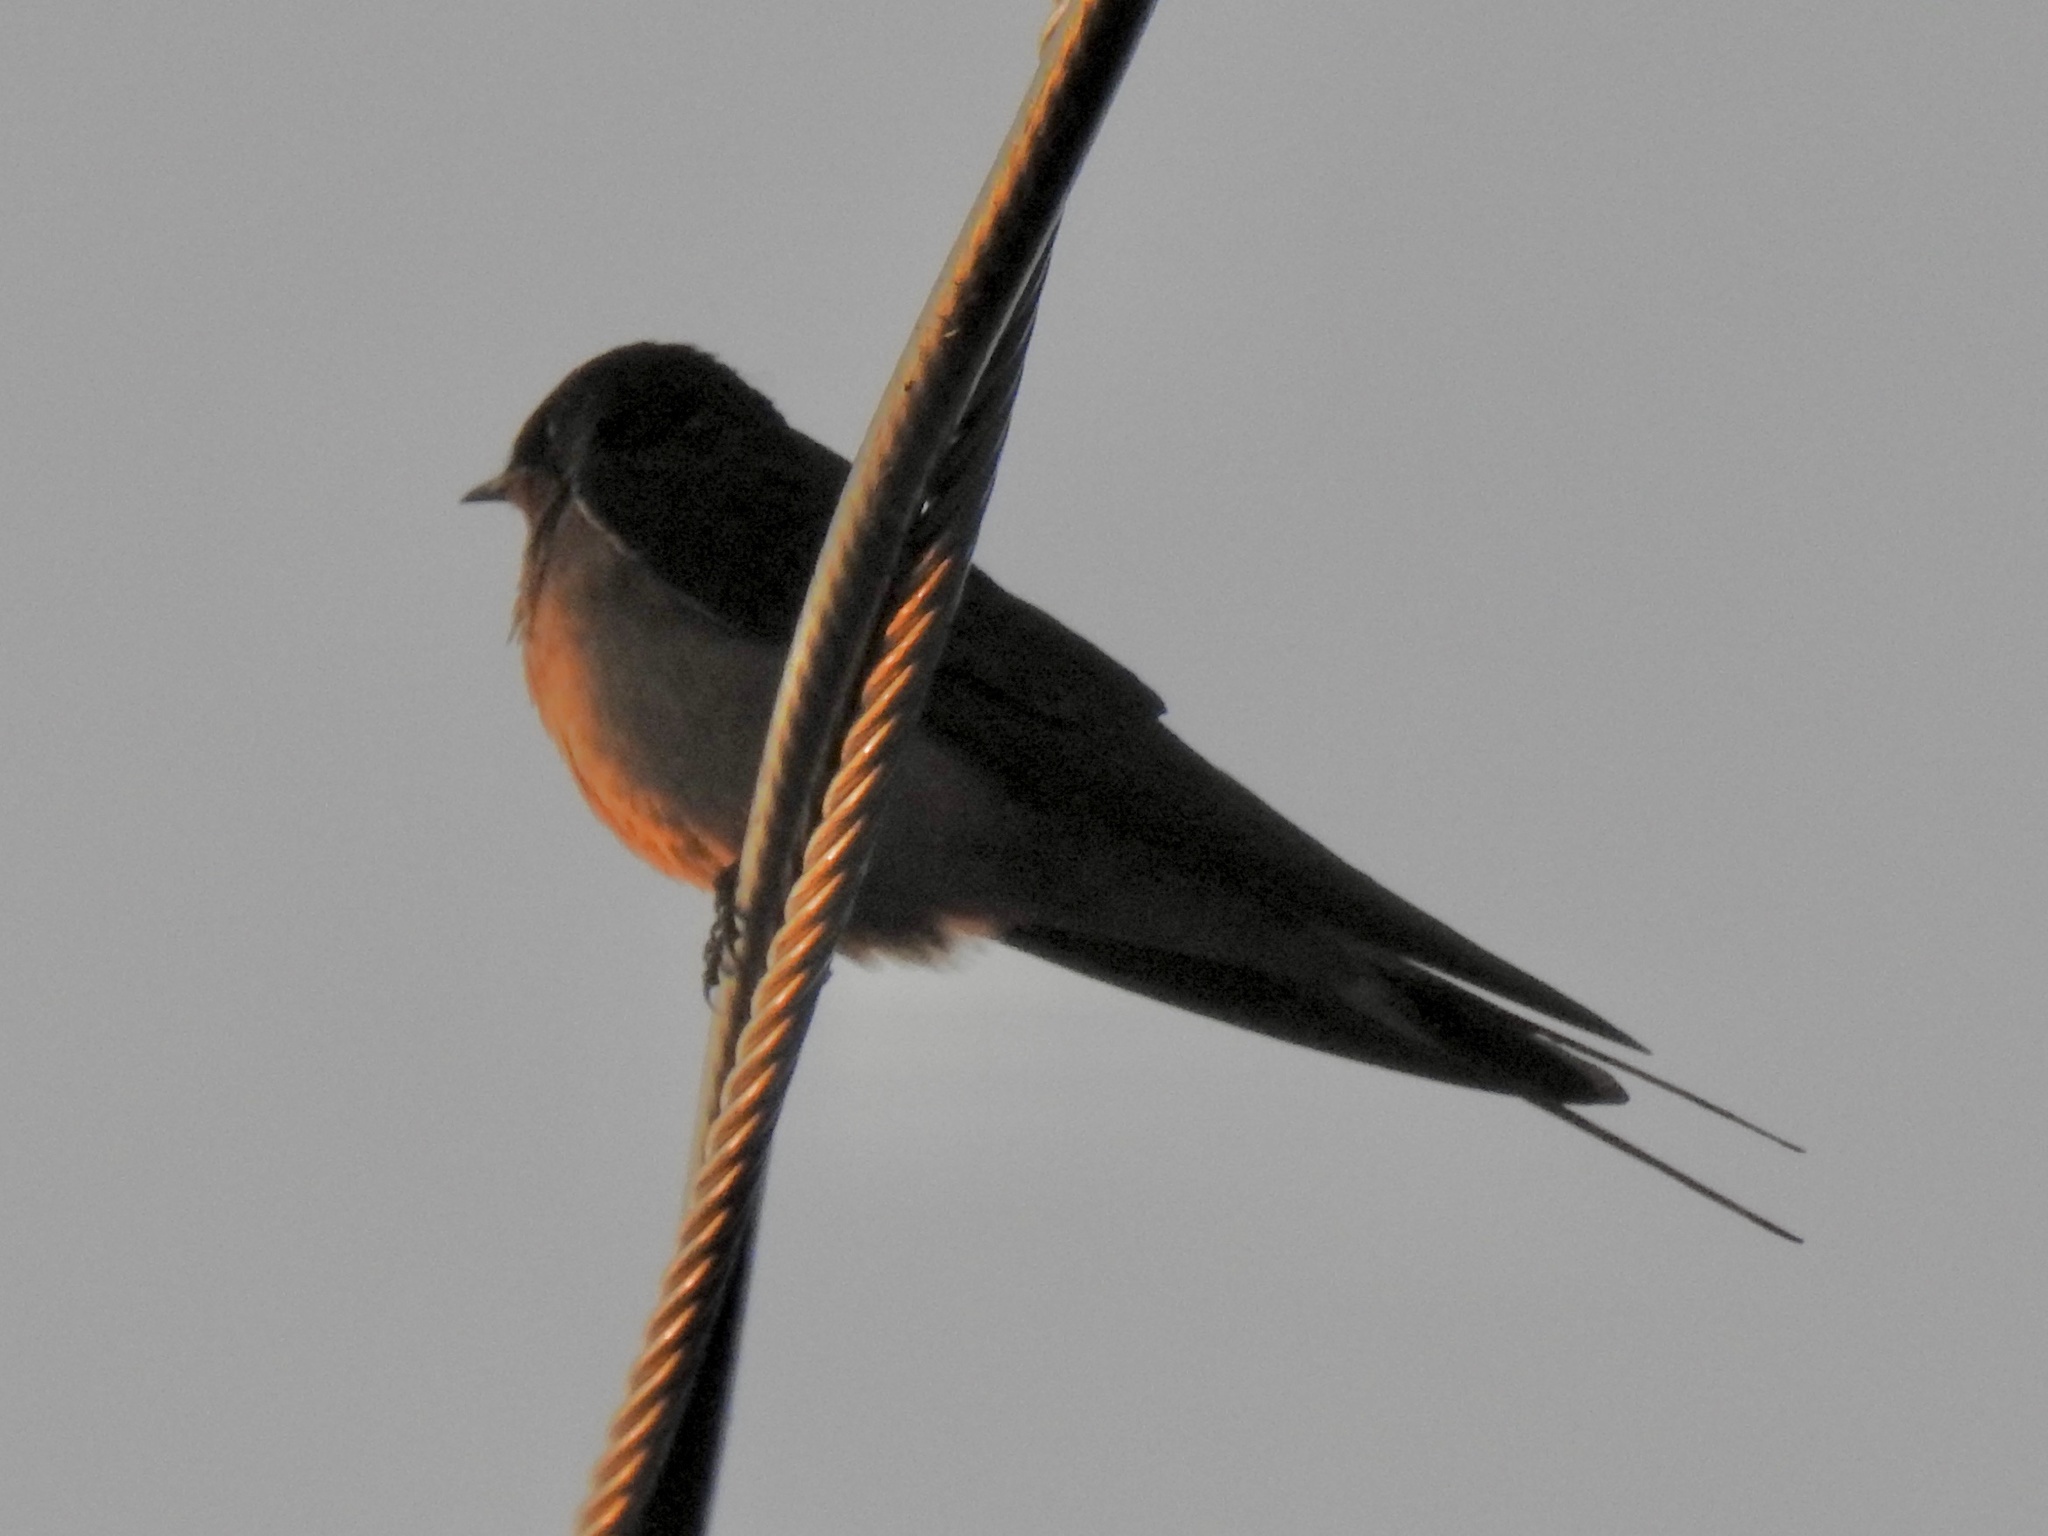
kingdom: Animalia
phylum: Chordata
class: Aves
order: Passeriformes
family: Hirundinidae
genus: Hirundo
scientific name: Hirundo rustica
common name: Barn swallow
